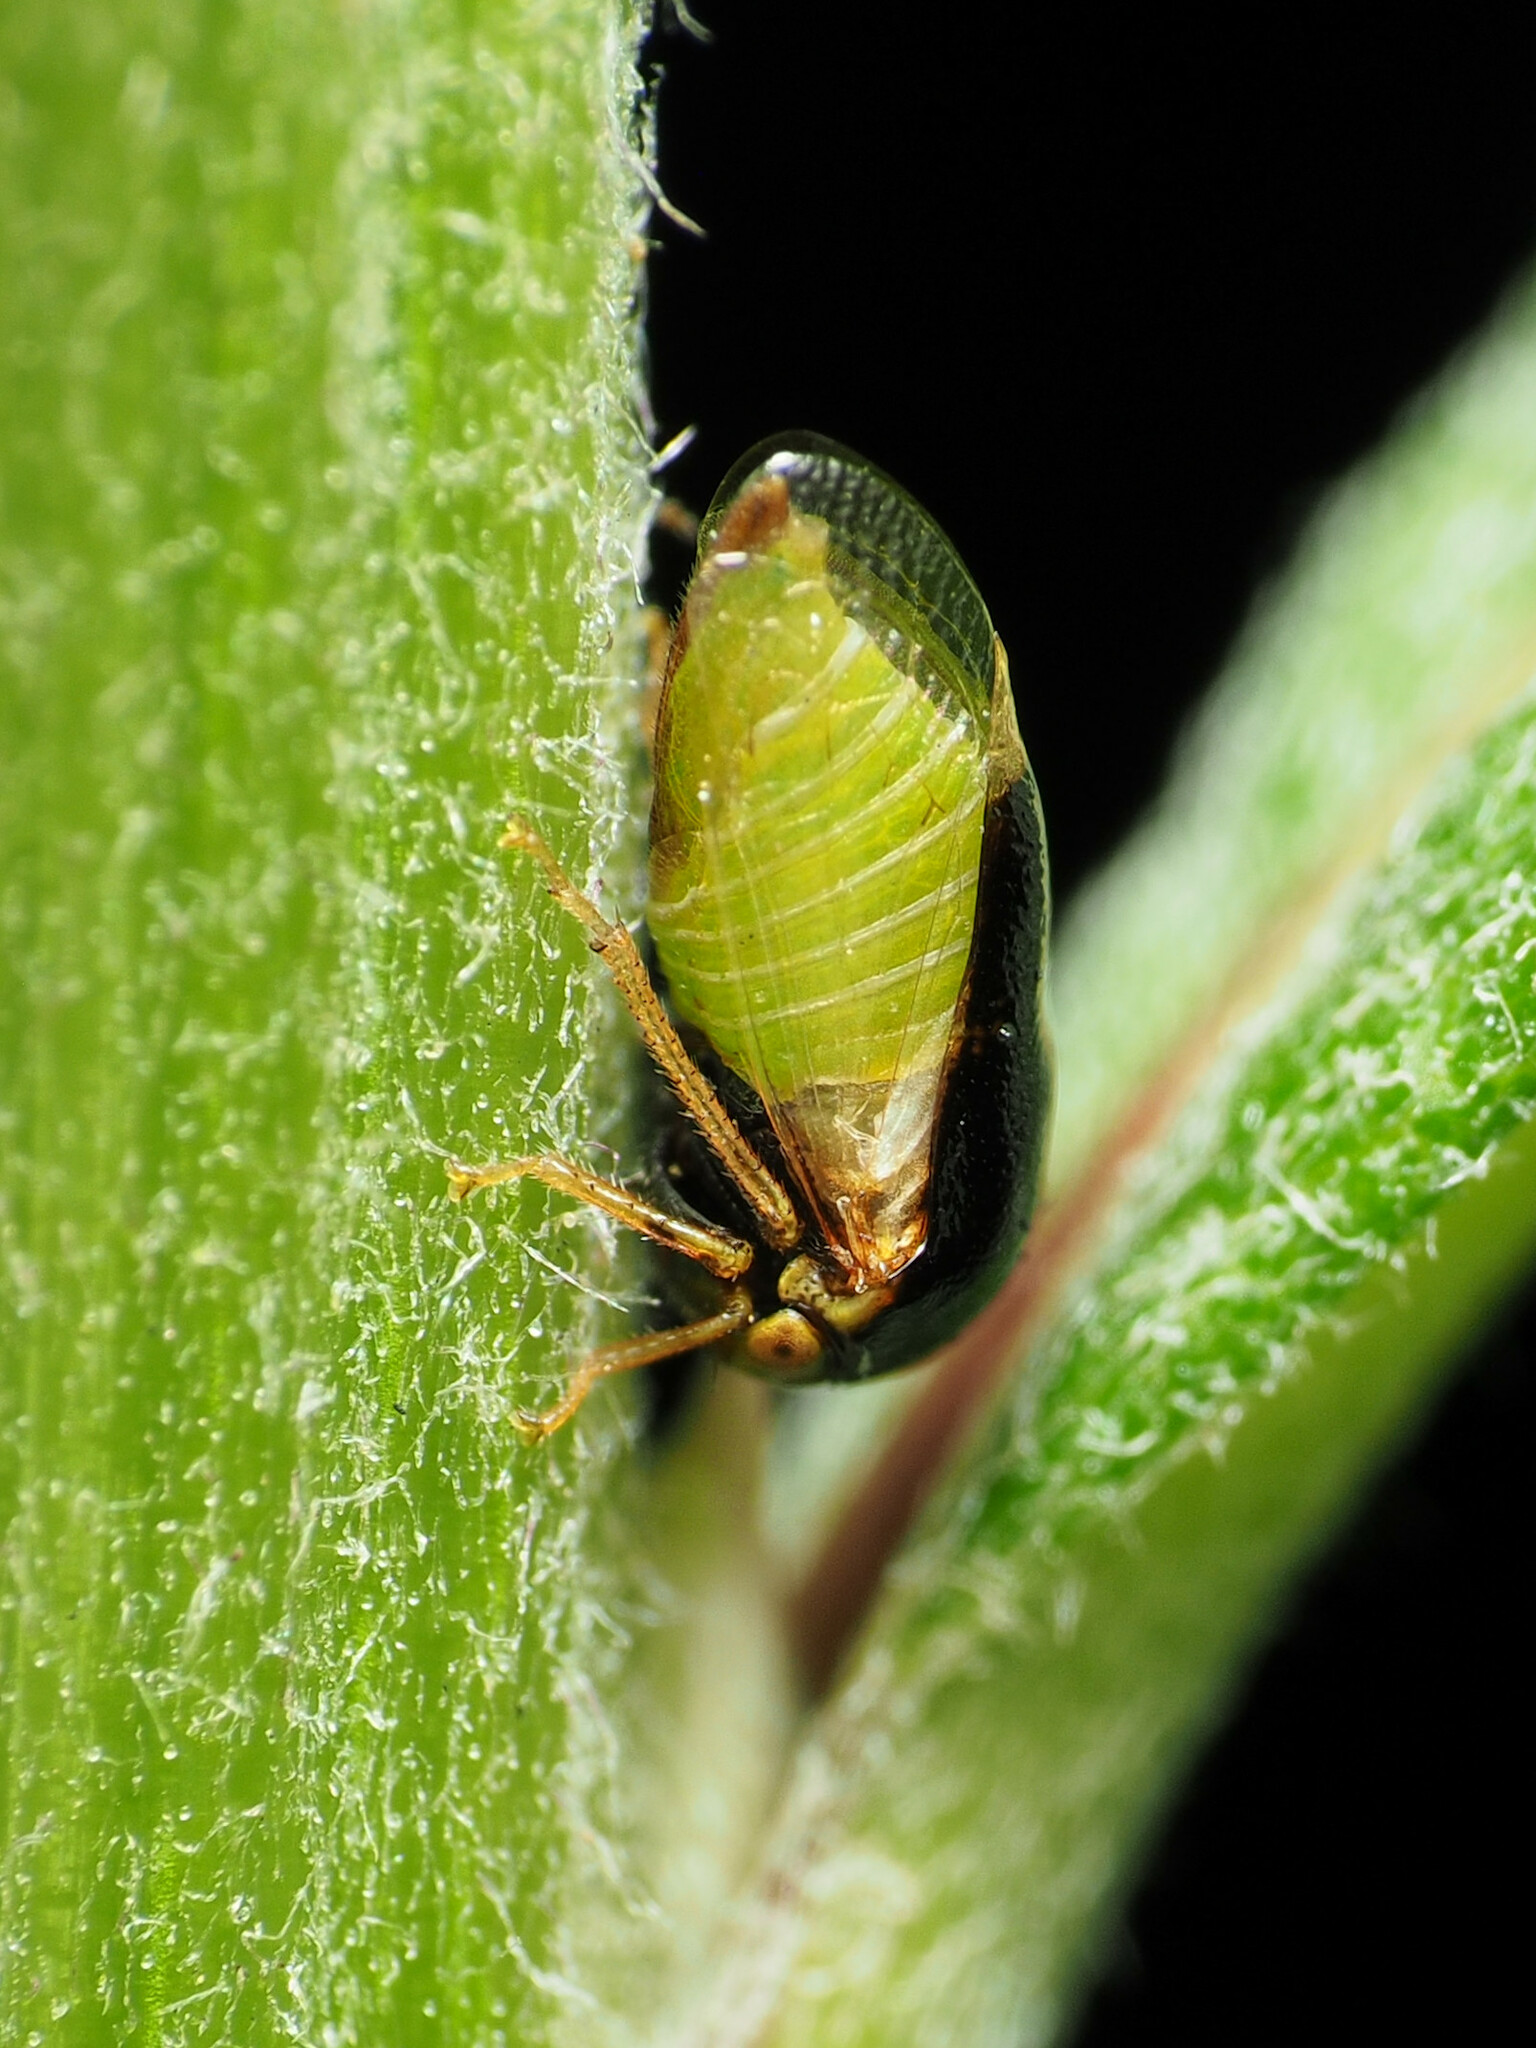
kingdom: Animalia
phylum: Arthropoda
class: Insecta
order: Hemiptera
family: Membracidae
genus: Micrutalis
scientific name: Micrutalis calva
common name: Honeylocust treehopper
